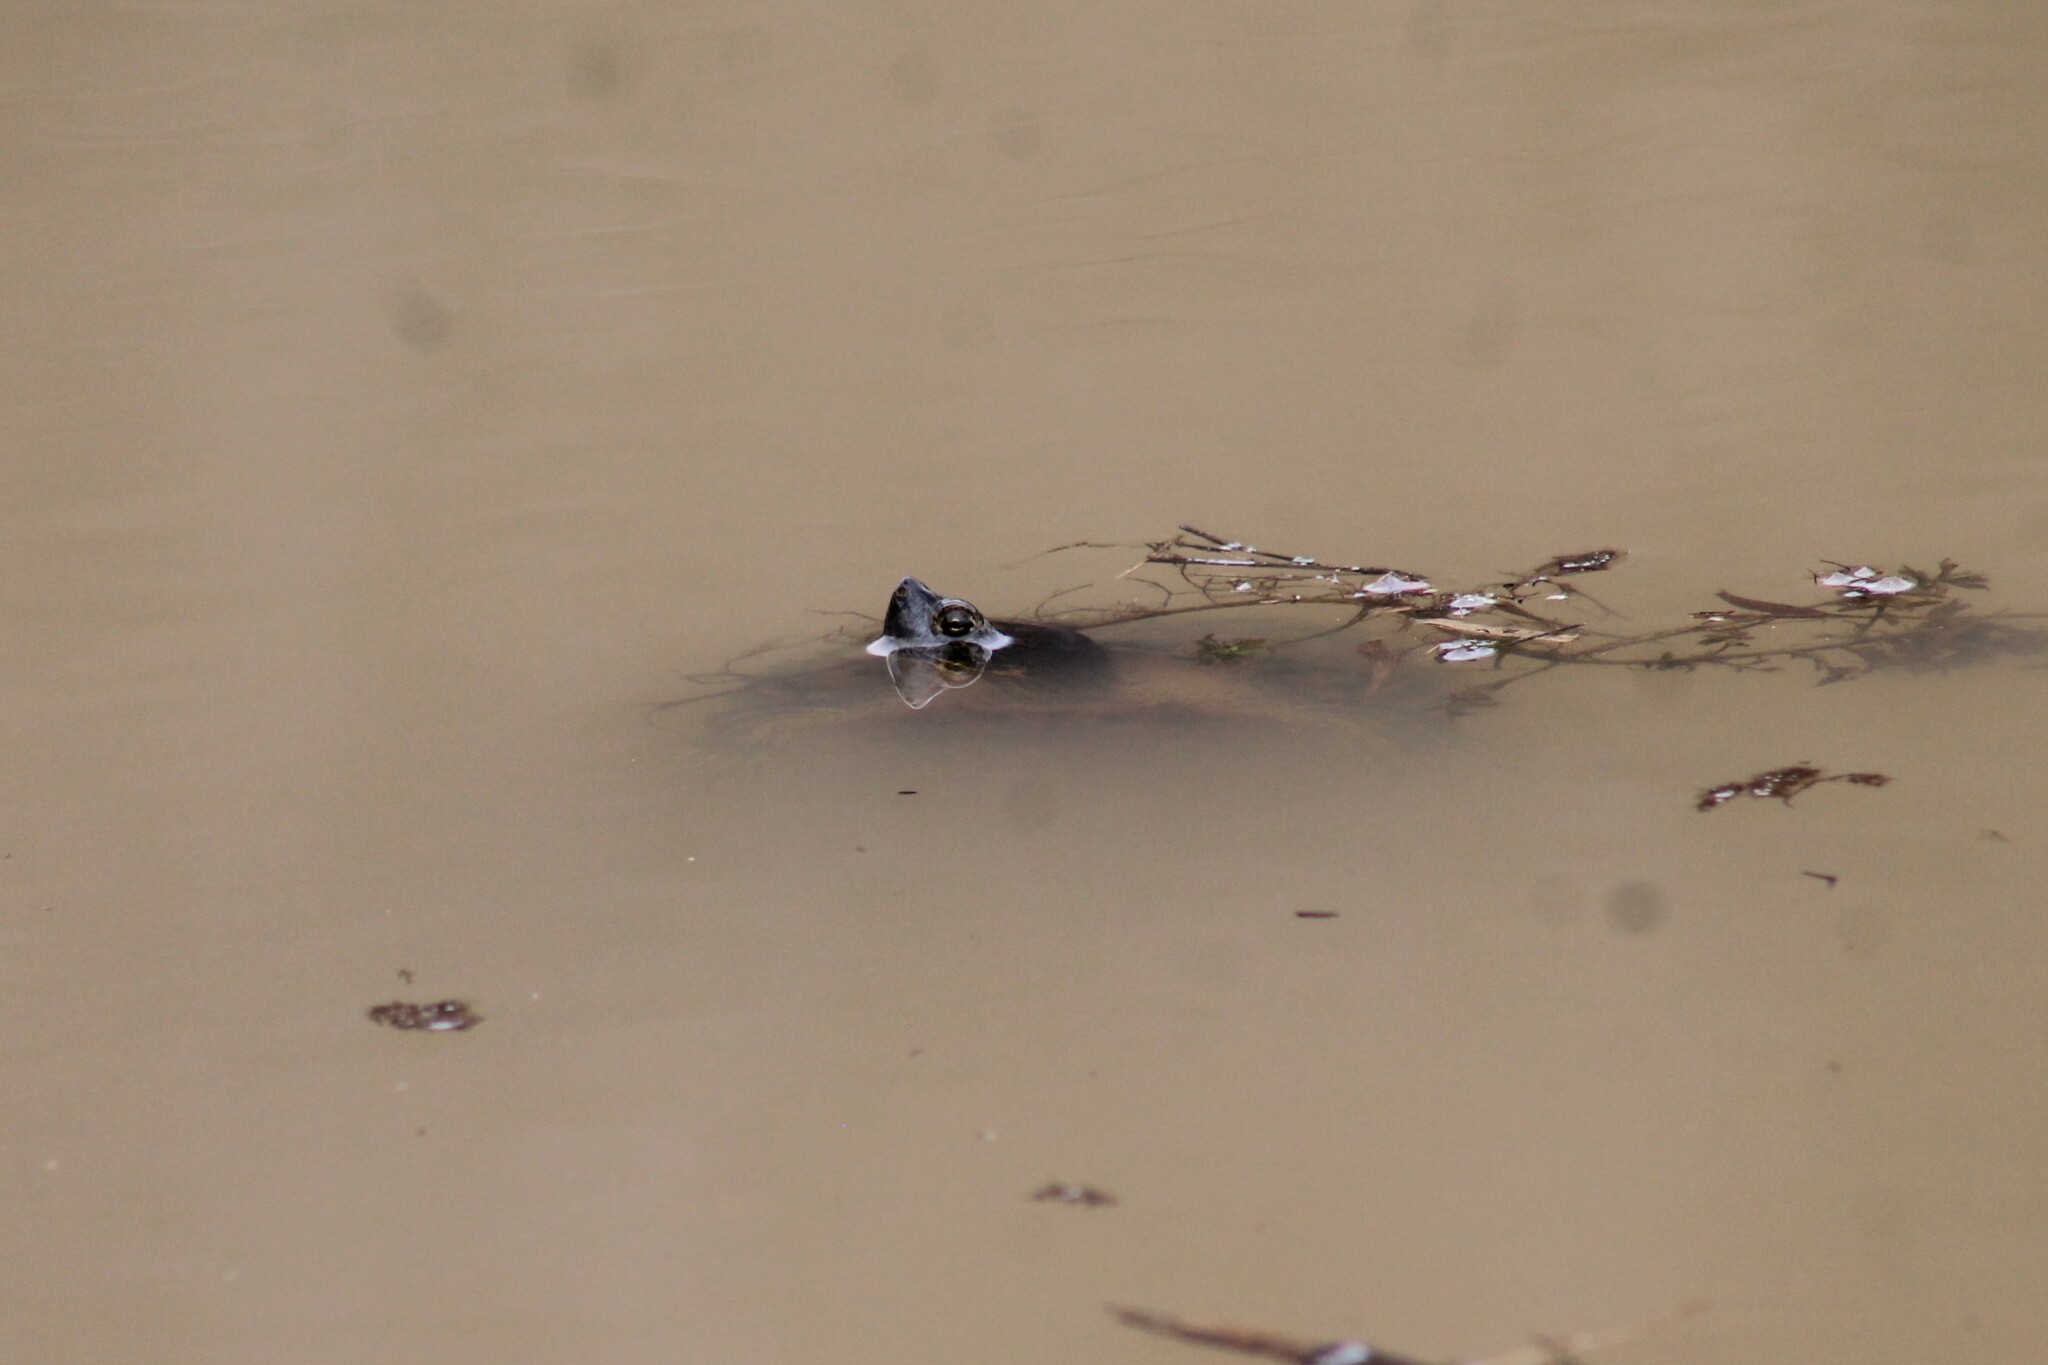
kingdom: Animalia
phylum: Chordata
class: Testudines
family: Emydidae
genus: Trachemys
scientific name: Trachemys scripta
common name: Slider
